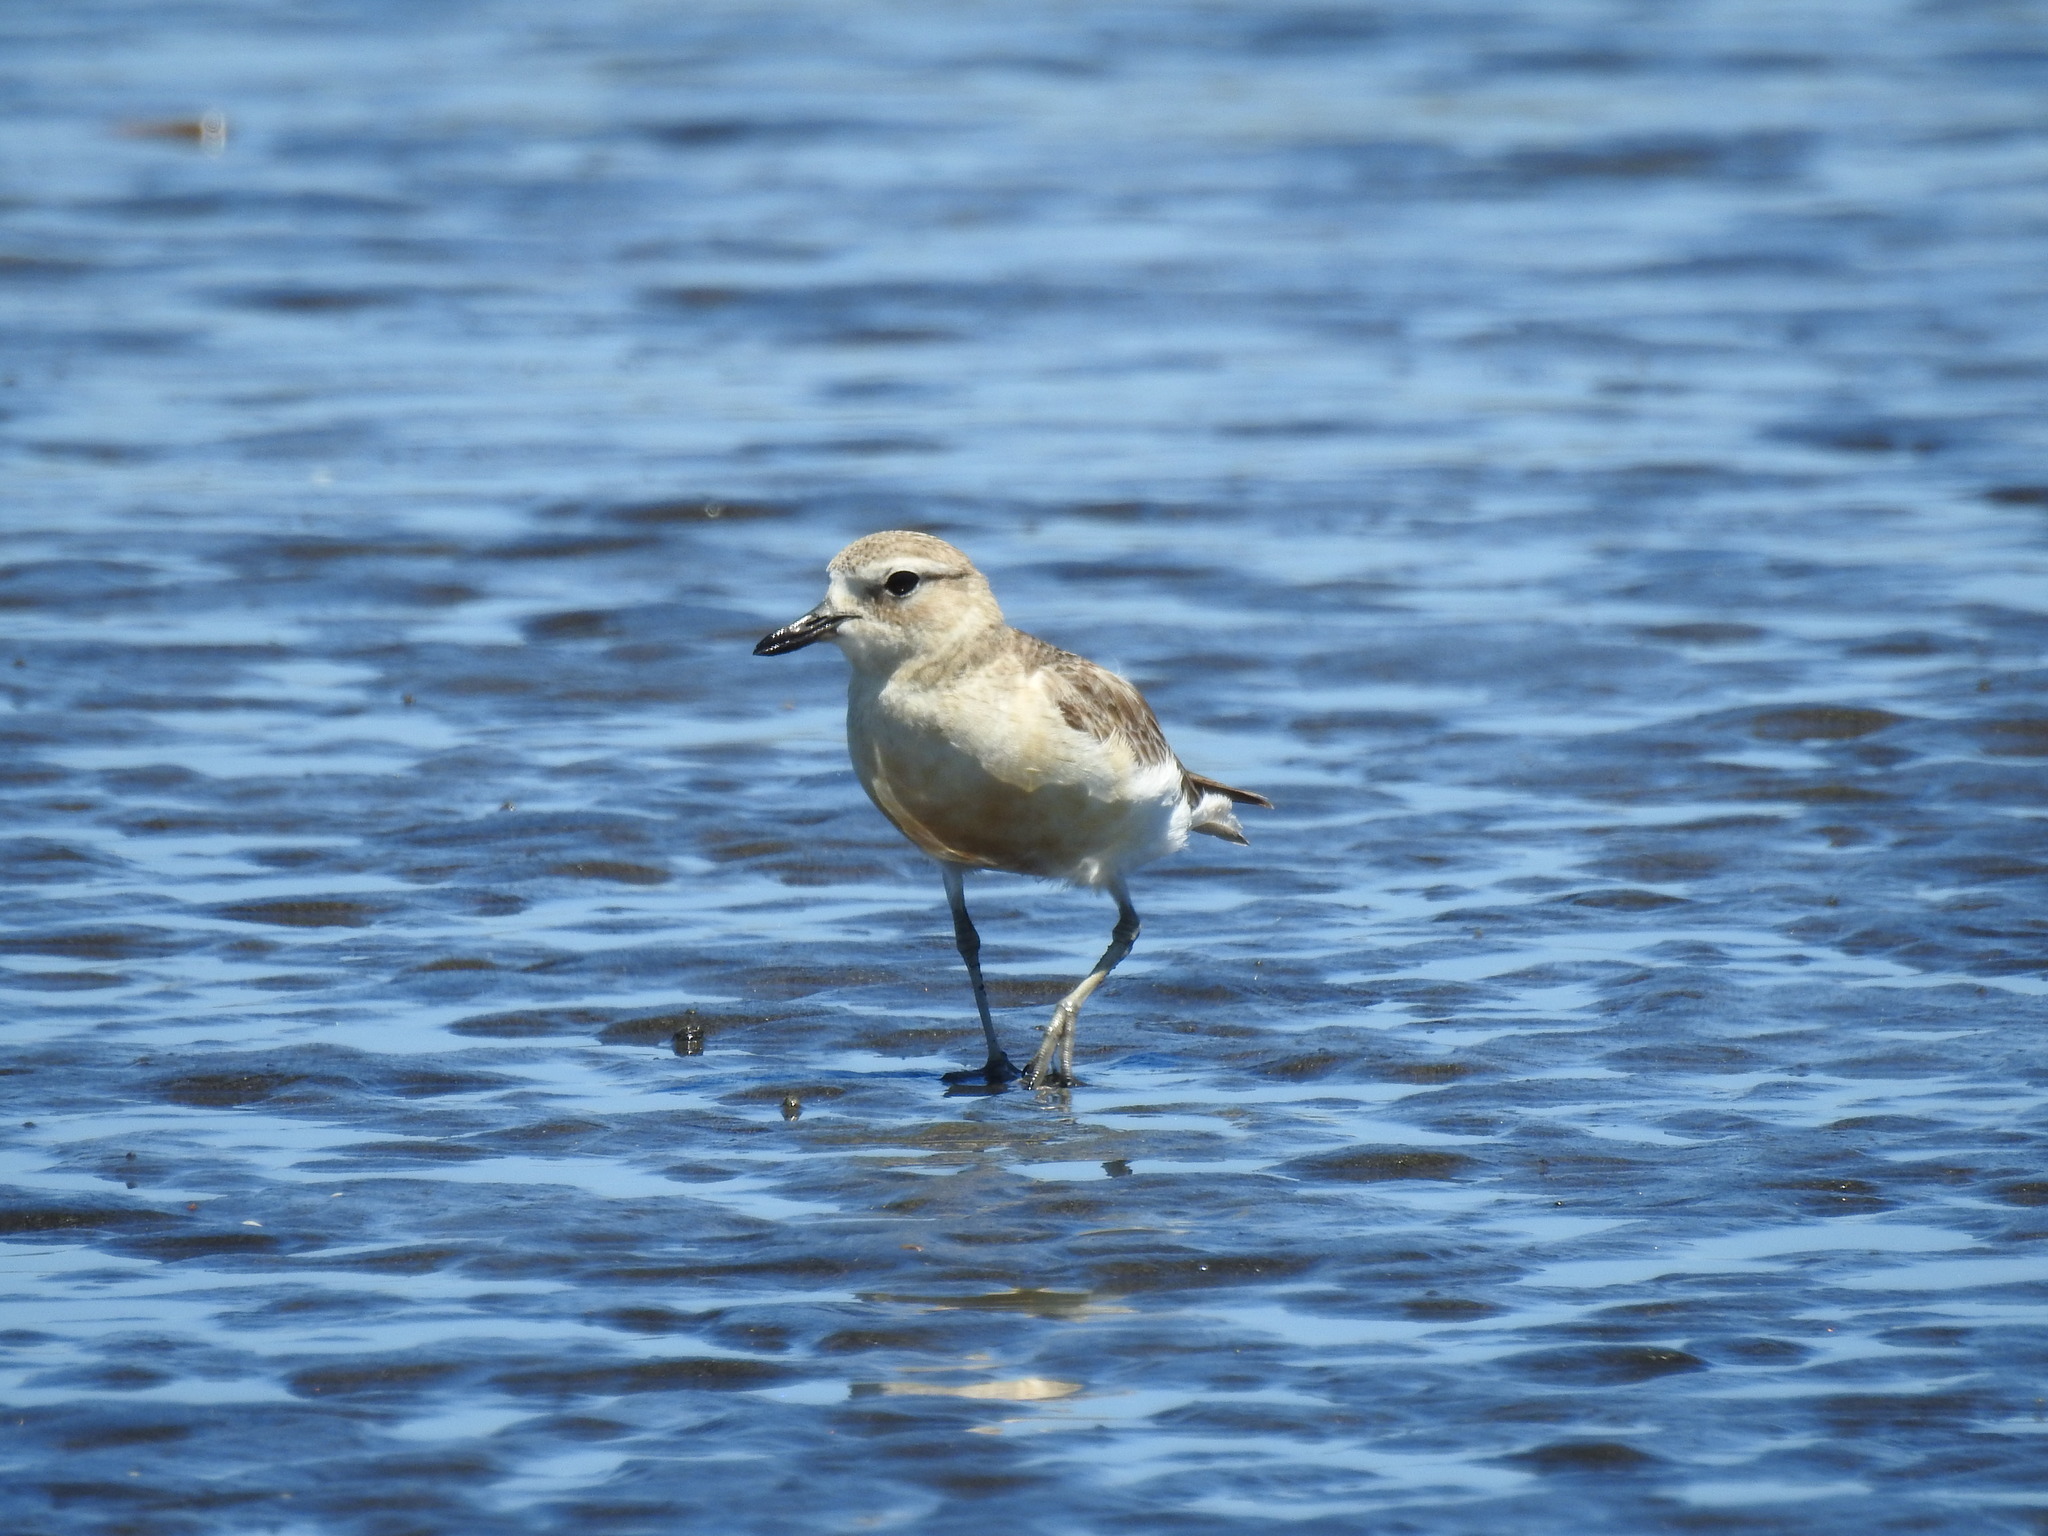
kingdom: Animalia
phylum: Chordata
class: Aves
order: Charadriiformes
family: Charadriidae
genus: Anarhynchus
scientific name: Anarhynchus
